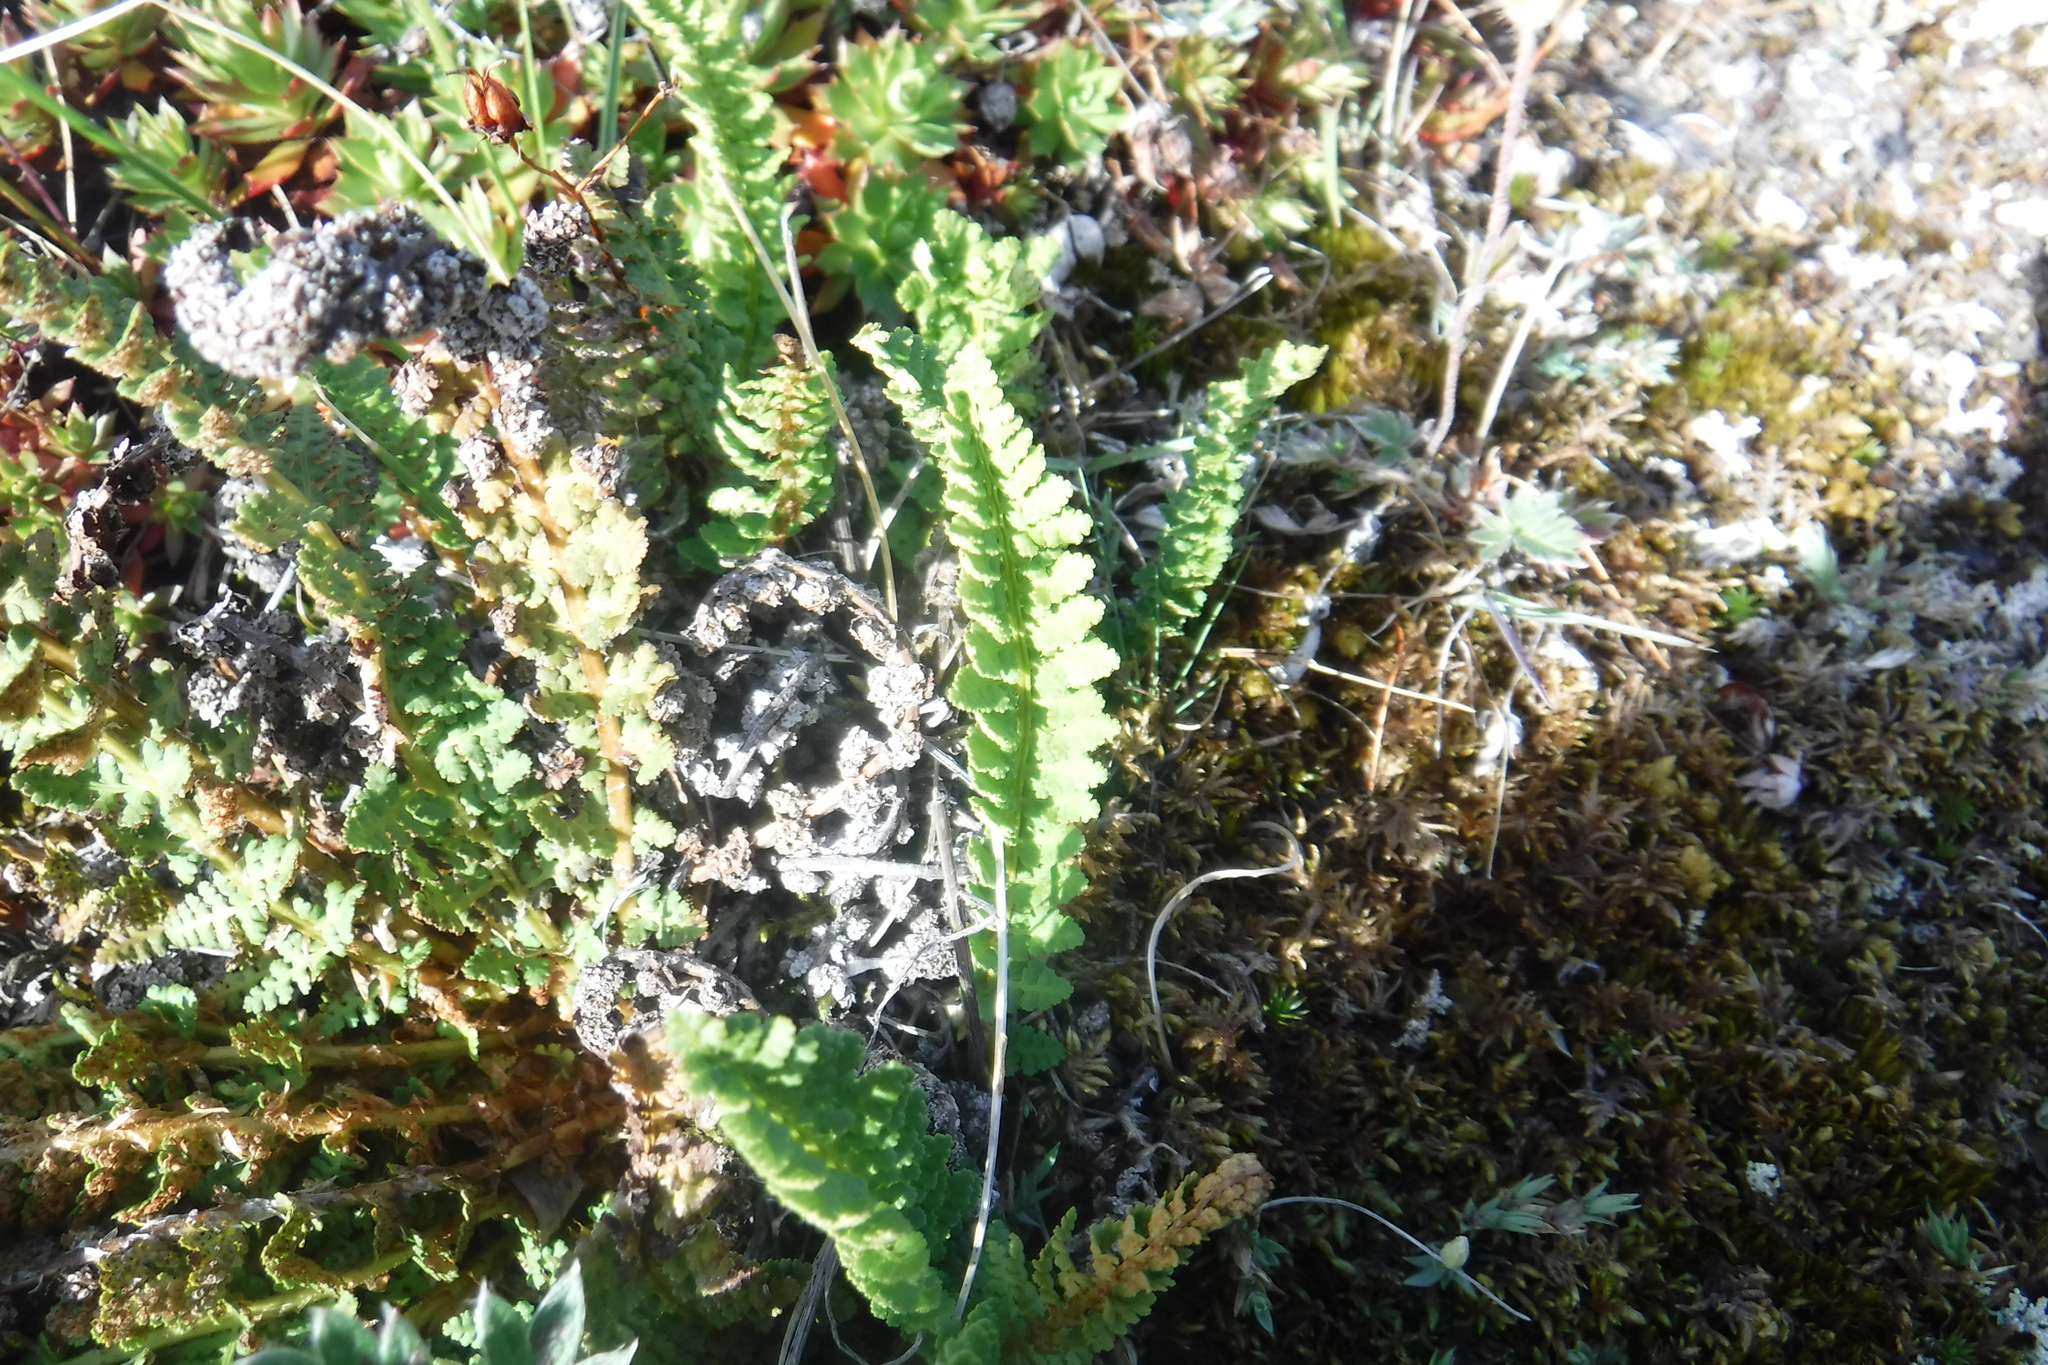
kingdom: Plantae
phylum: Tracheophyta
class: Polypodiopsida
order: Polypodiales
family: Dryopteridaceae
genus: Dryopteris
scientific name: Dryopteris fragrans
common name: Fragrant wood fern
